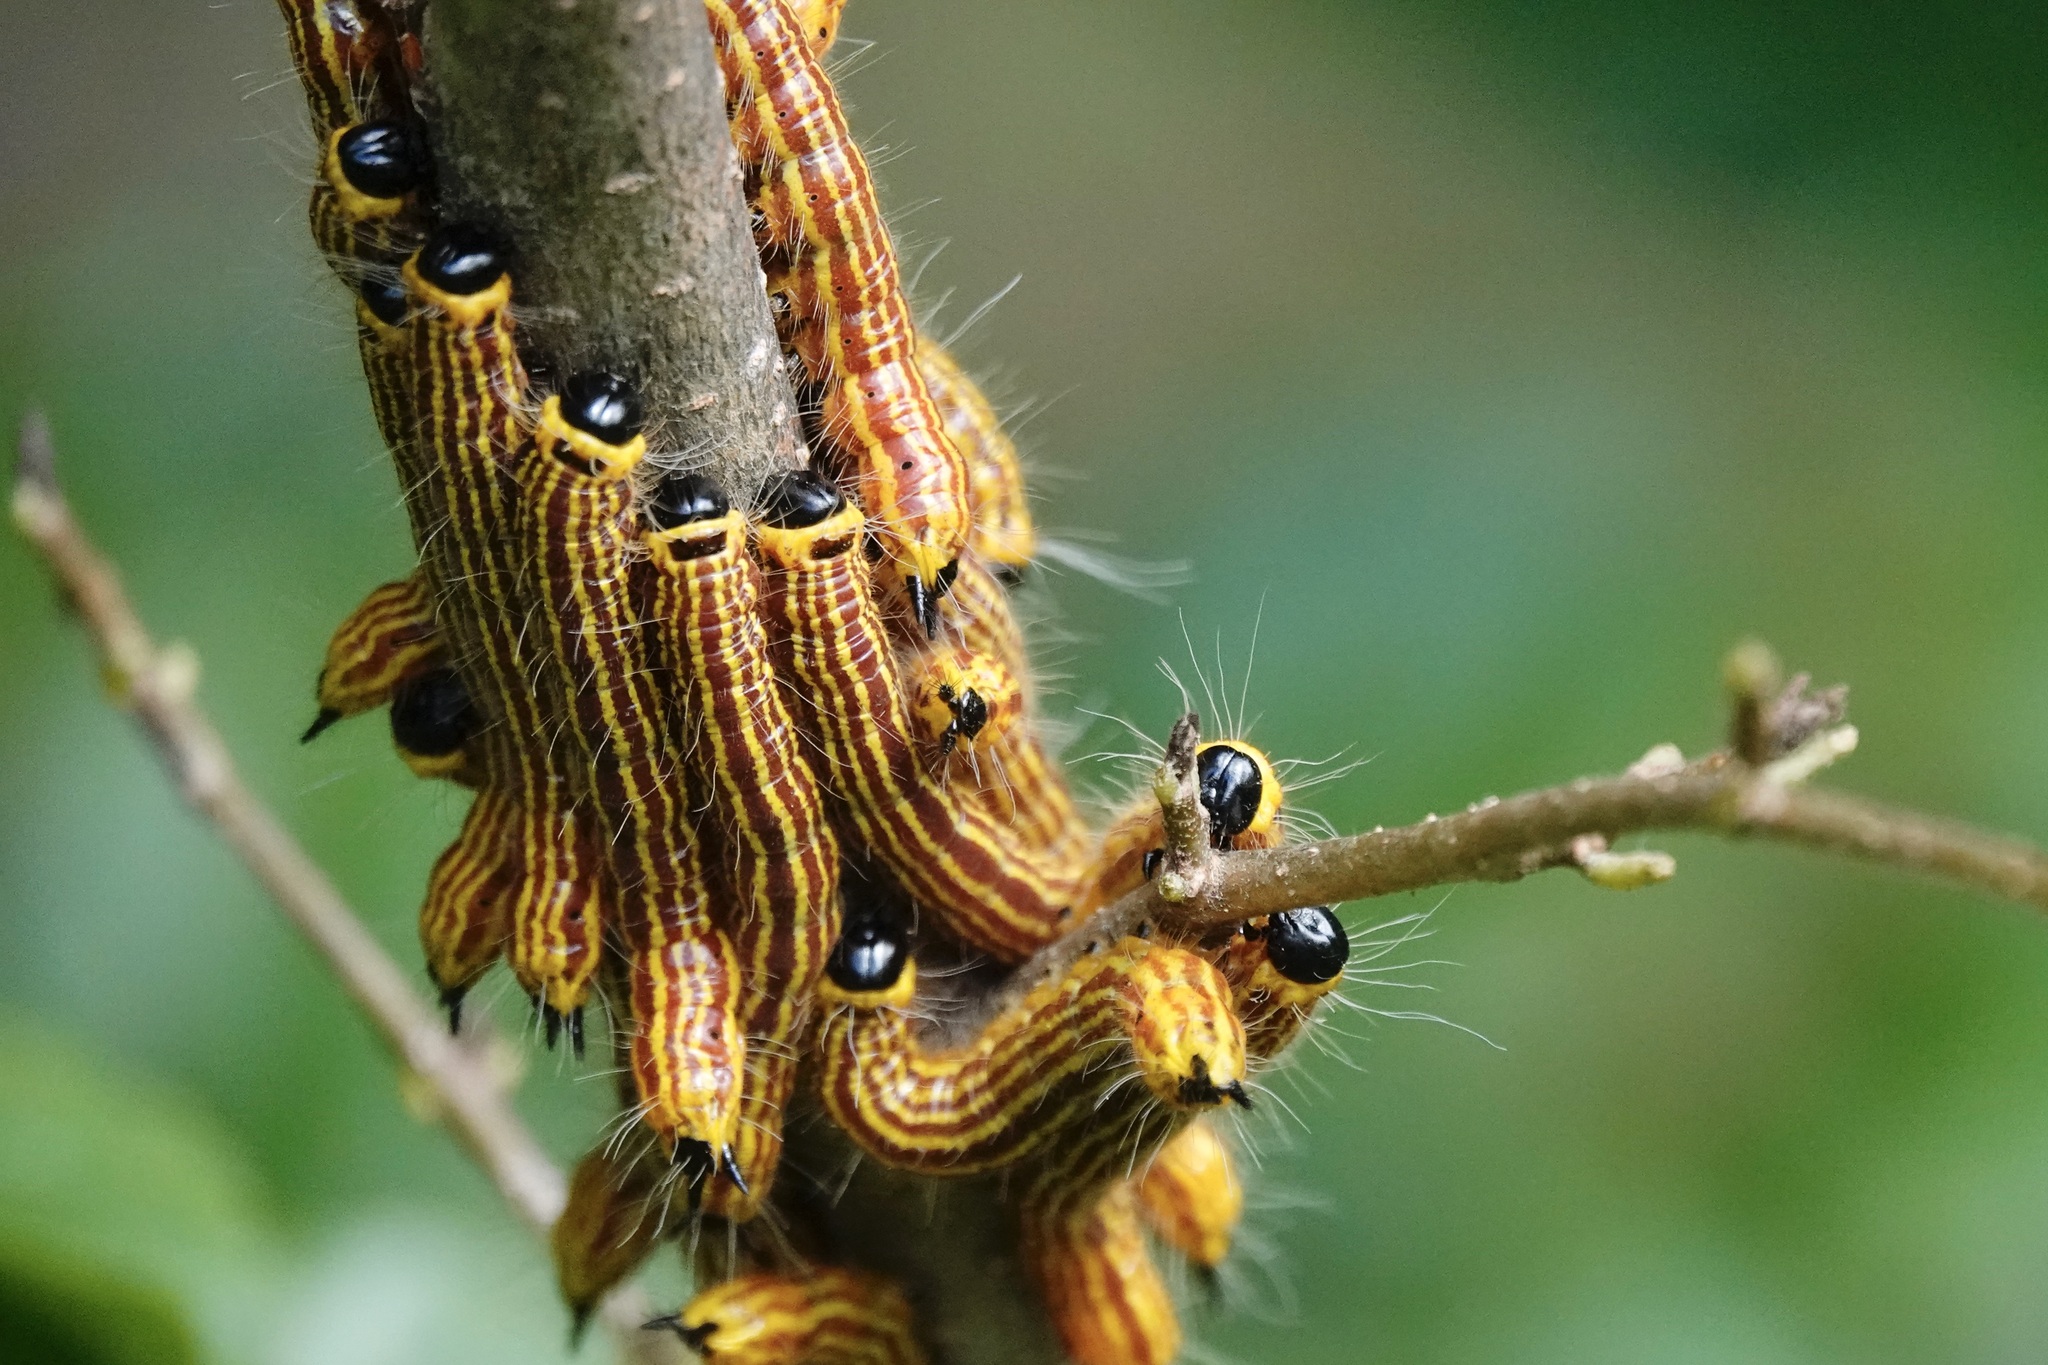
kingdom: Animalia
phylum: Arthropoda
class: Insecta
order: Lepidoptera
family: Notodontidae
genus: Datana
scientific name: Datana drexelii
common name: Drexel's datana
